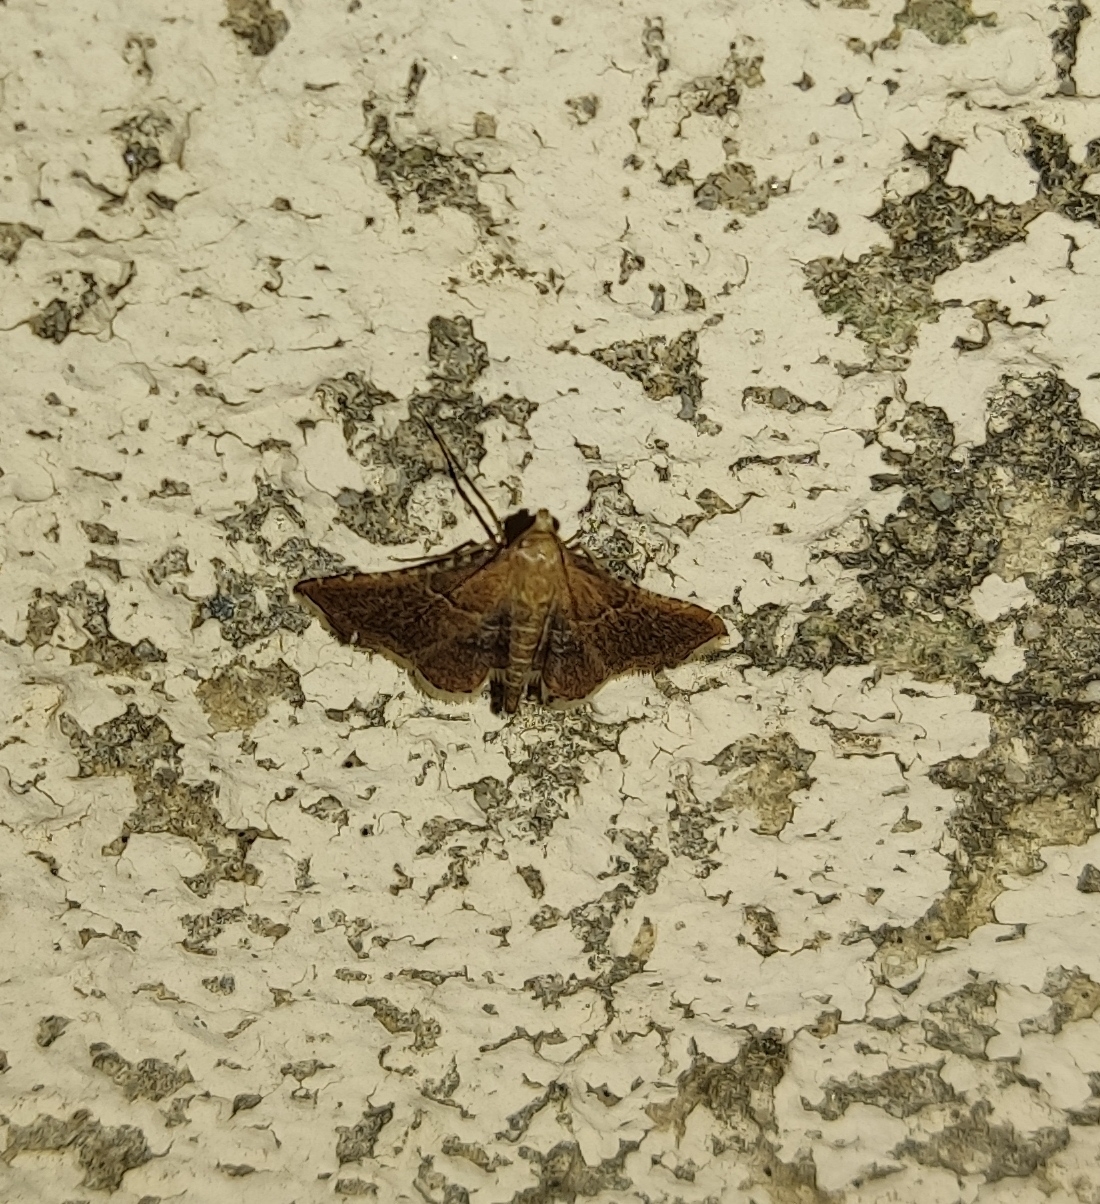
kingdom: Animalia
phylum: Arthropoda
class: Insecta
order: Lepidoptera
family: Pyralidae
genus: Endotricha
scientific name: Endotricha flammealis
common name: Rosy tabby
